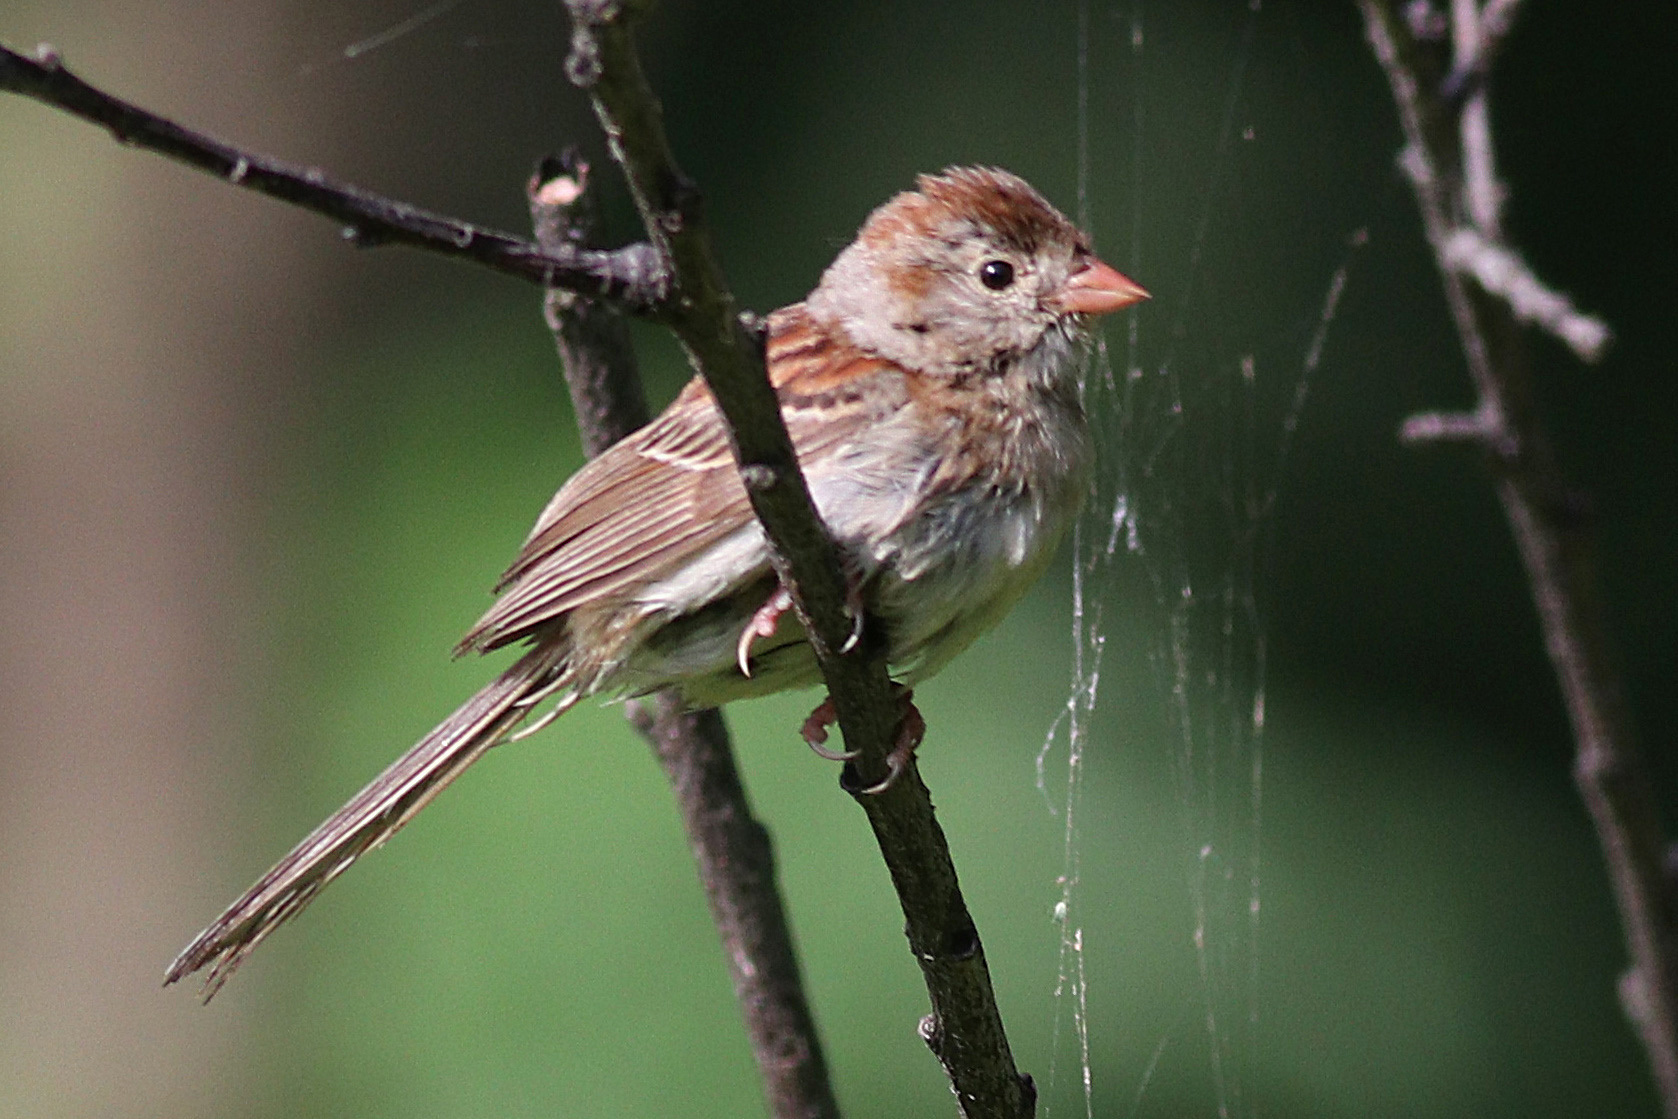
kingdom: Animalia
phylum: Chordata
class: Aves
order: Passeriformes
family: Passerellidae
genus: Spizella
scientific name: Spizella pusilla
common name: Field sparrow
